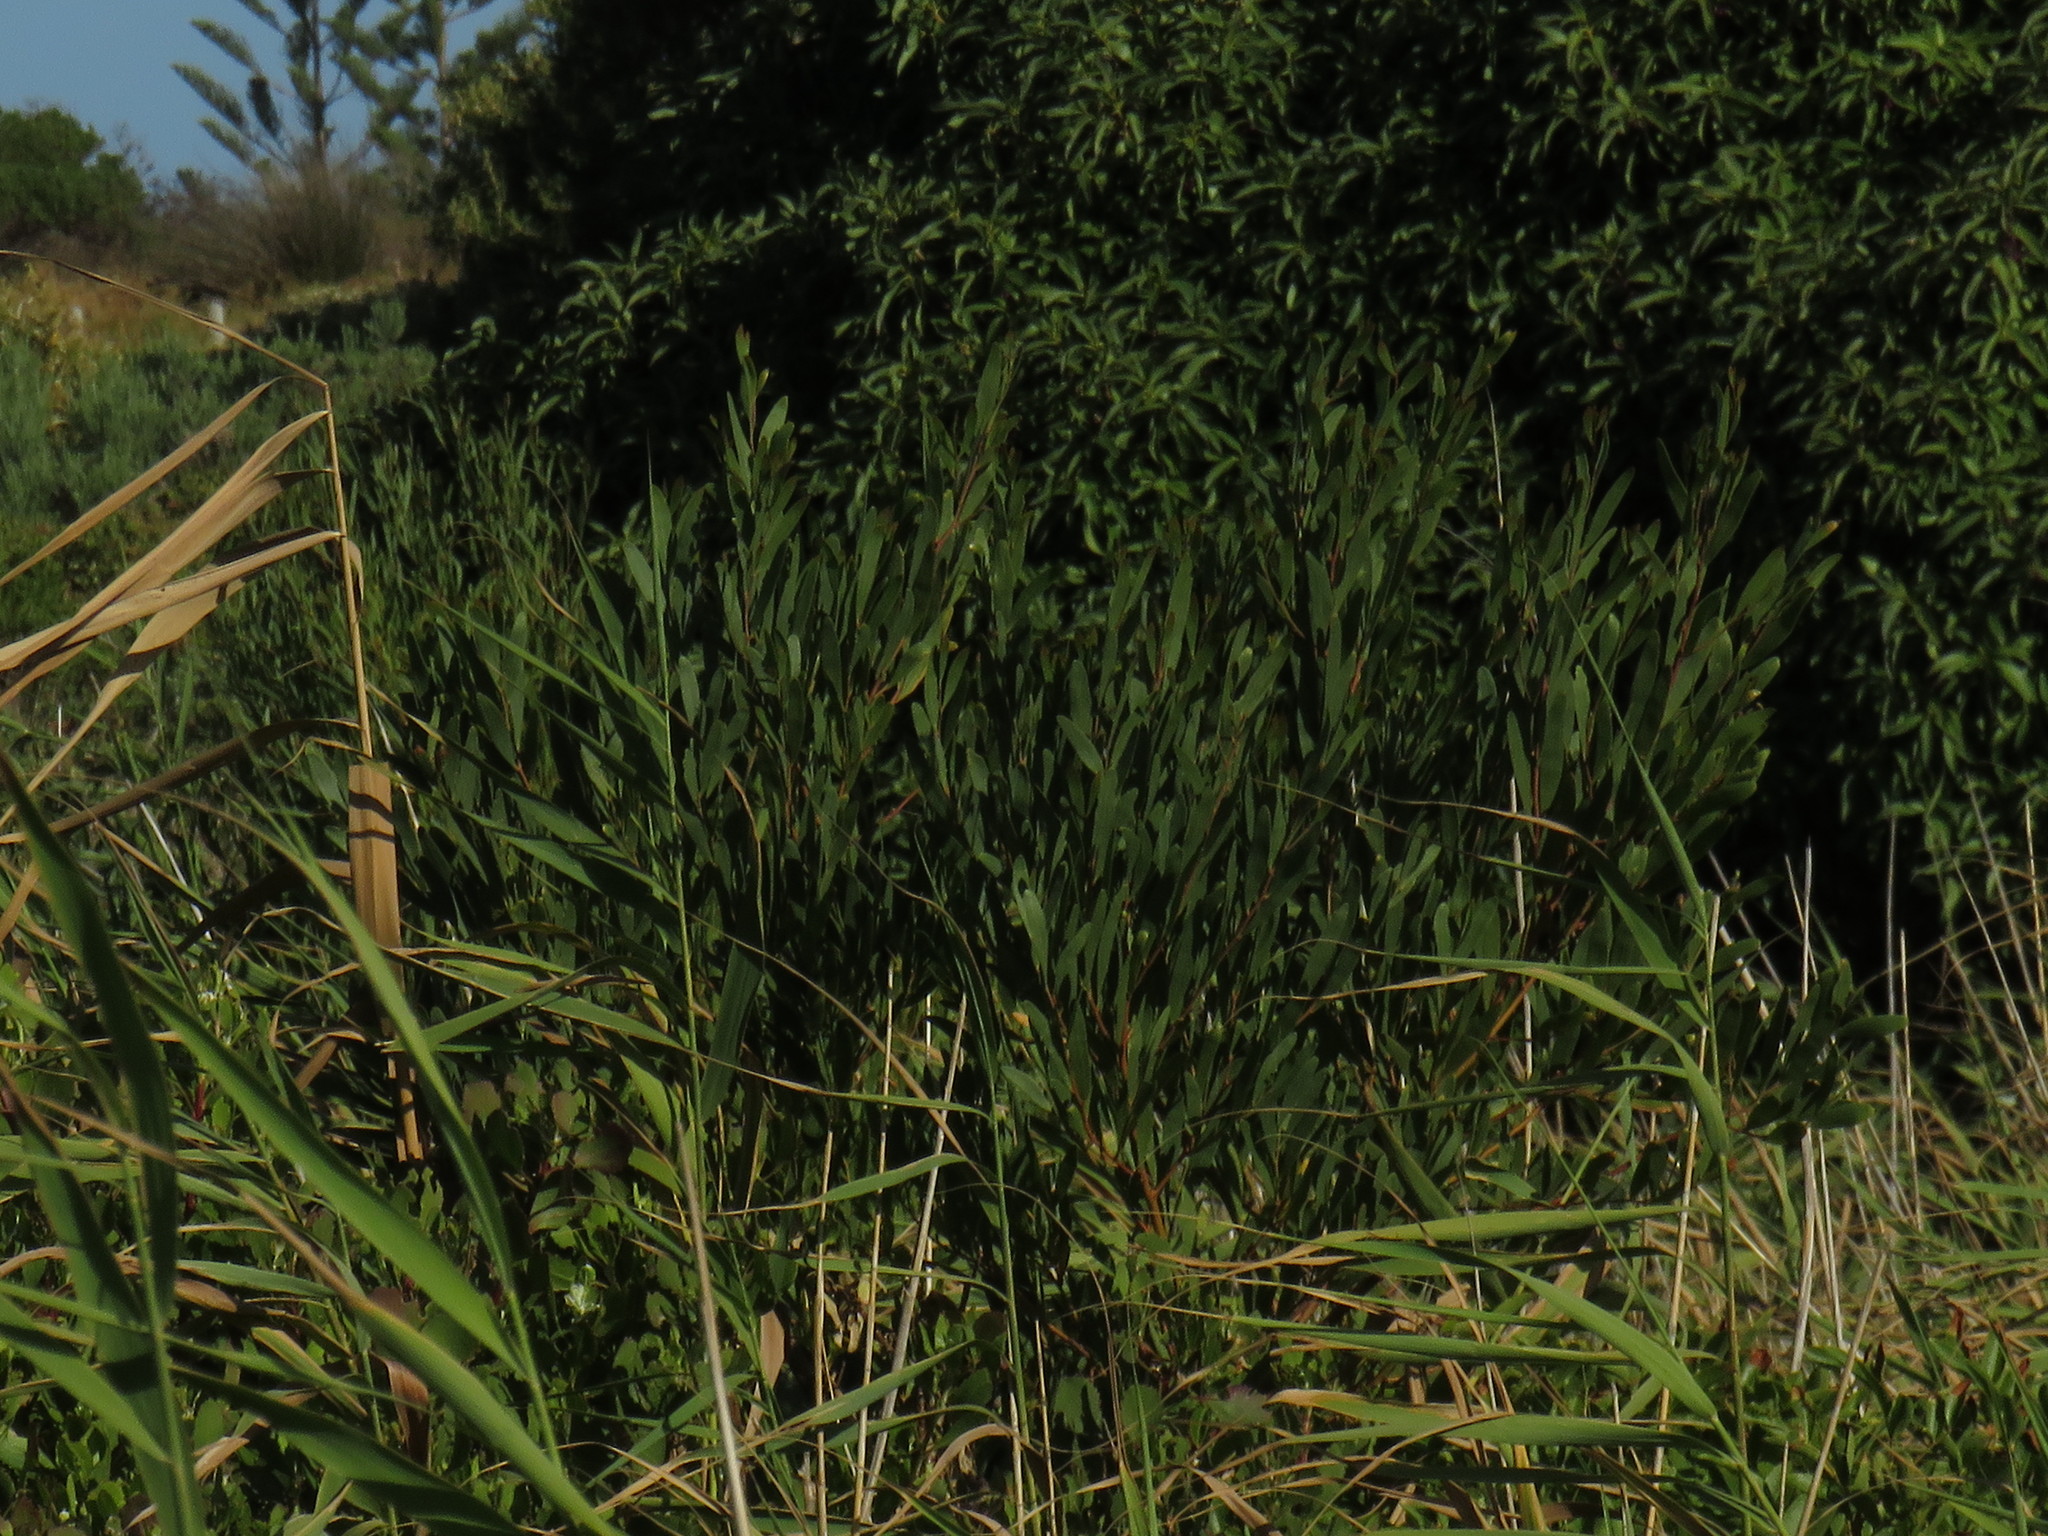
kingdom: Plantae
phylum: Tracheophyta
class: Magnoliopsida
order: Fabales
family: Fabaceae
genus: Acacia
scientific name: Acacia cyclops
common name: Coastal wattle
